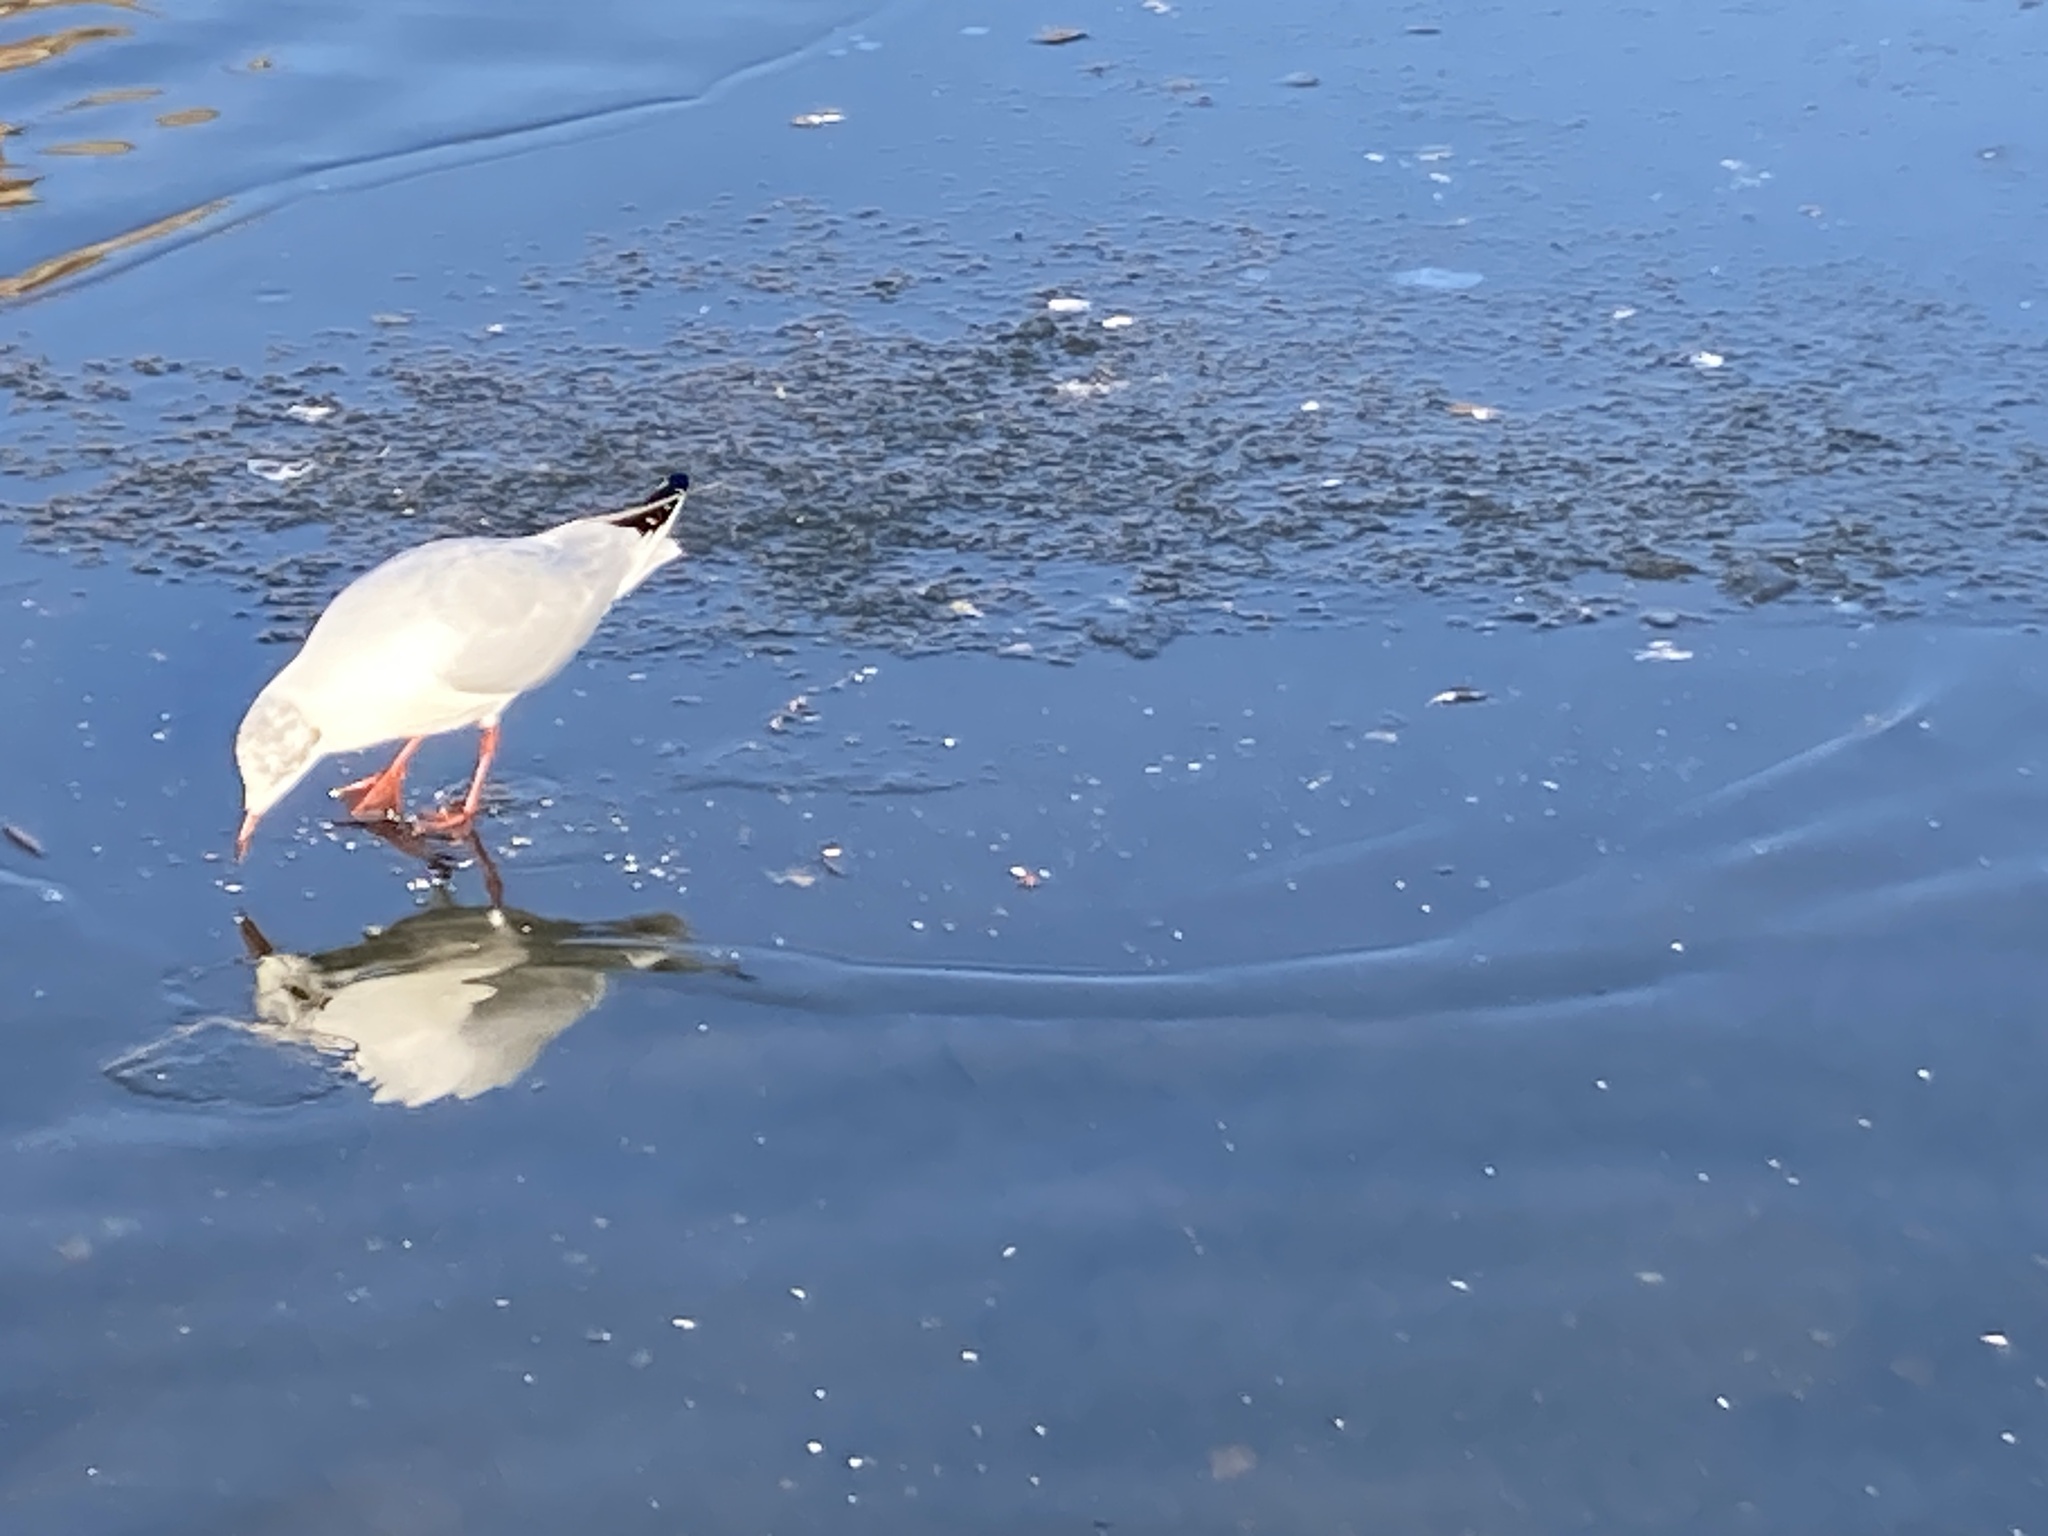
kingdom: Animalia
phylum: Chordata
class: Aves
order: Charadriiformes
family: Laridae
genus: Chroicocephalus
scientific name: Chroicocephalus ridibundus
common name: Black-headed gull
